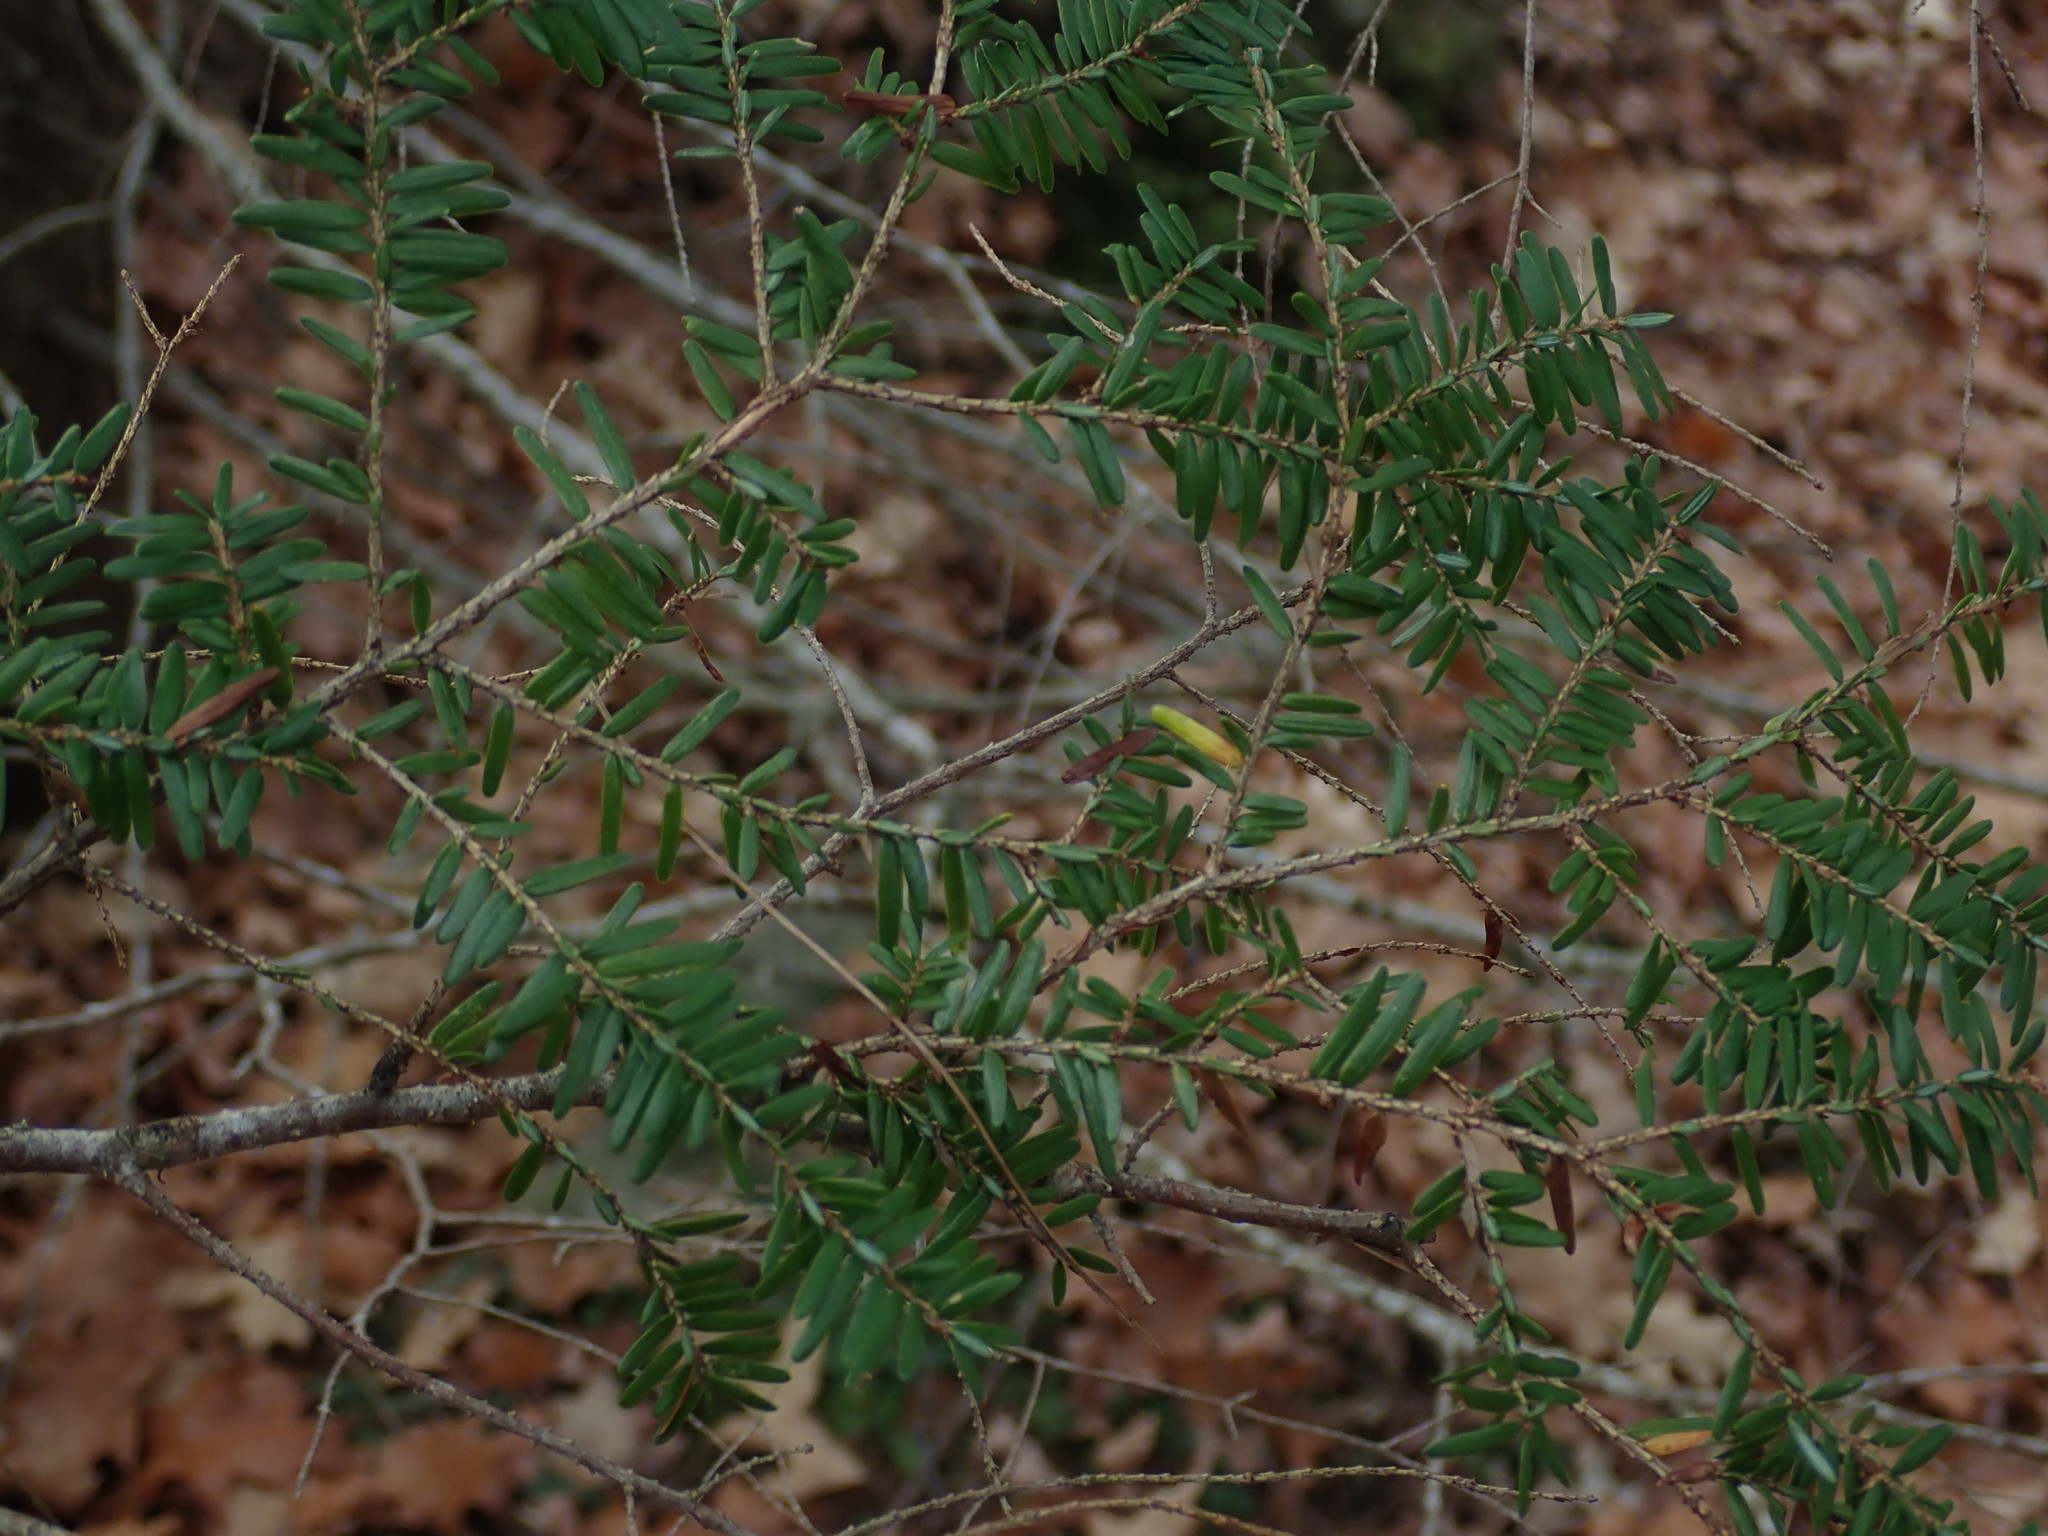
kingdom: Plantae
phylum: Tracheophyta
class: Pinopsida
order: Pinales
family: Pinaceae
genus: Tsuga
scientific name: Tsuga canadensis
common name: Eastern hemlock
